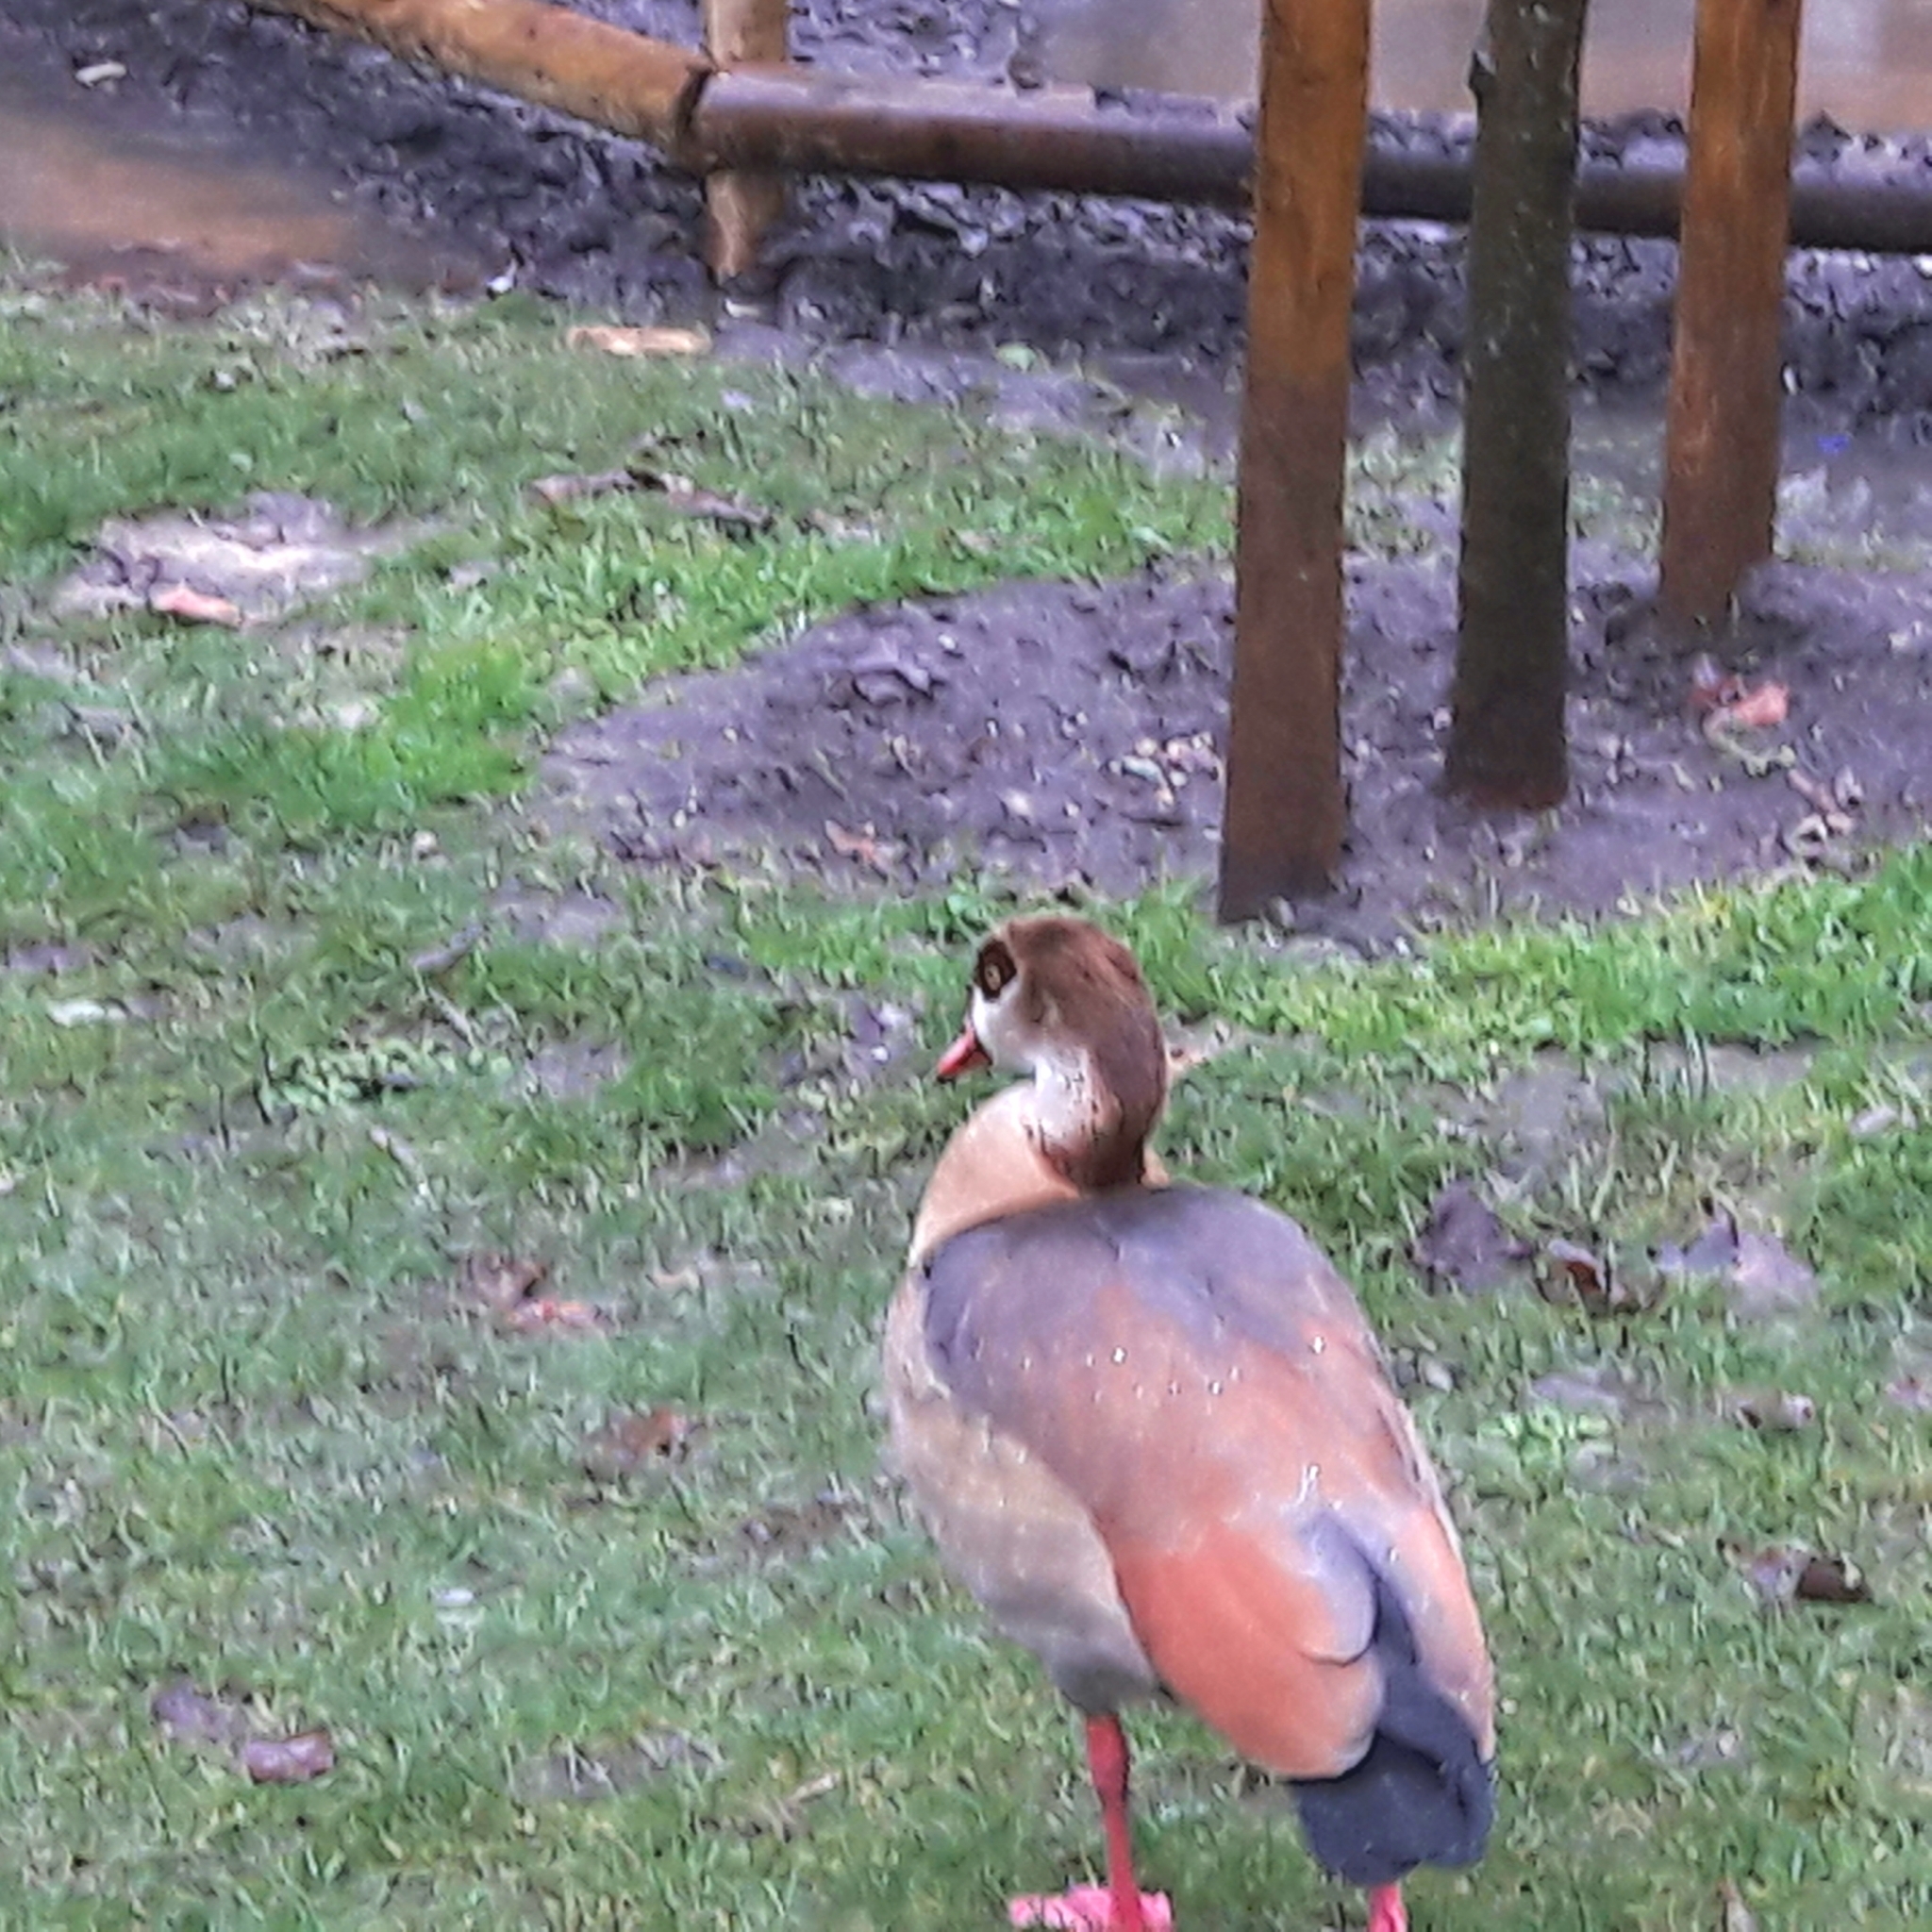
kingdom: Animalia
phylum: Chordata
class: Aves
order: Anseriformes
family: Anatidae
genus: Alopochen
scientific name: Alopochen aegyptiaca
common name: Egyptian goose
